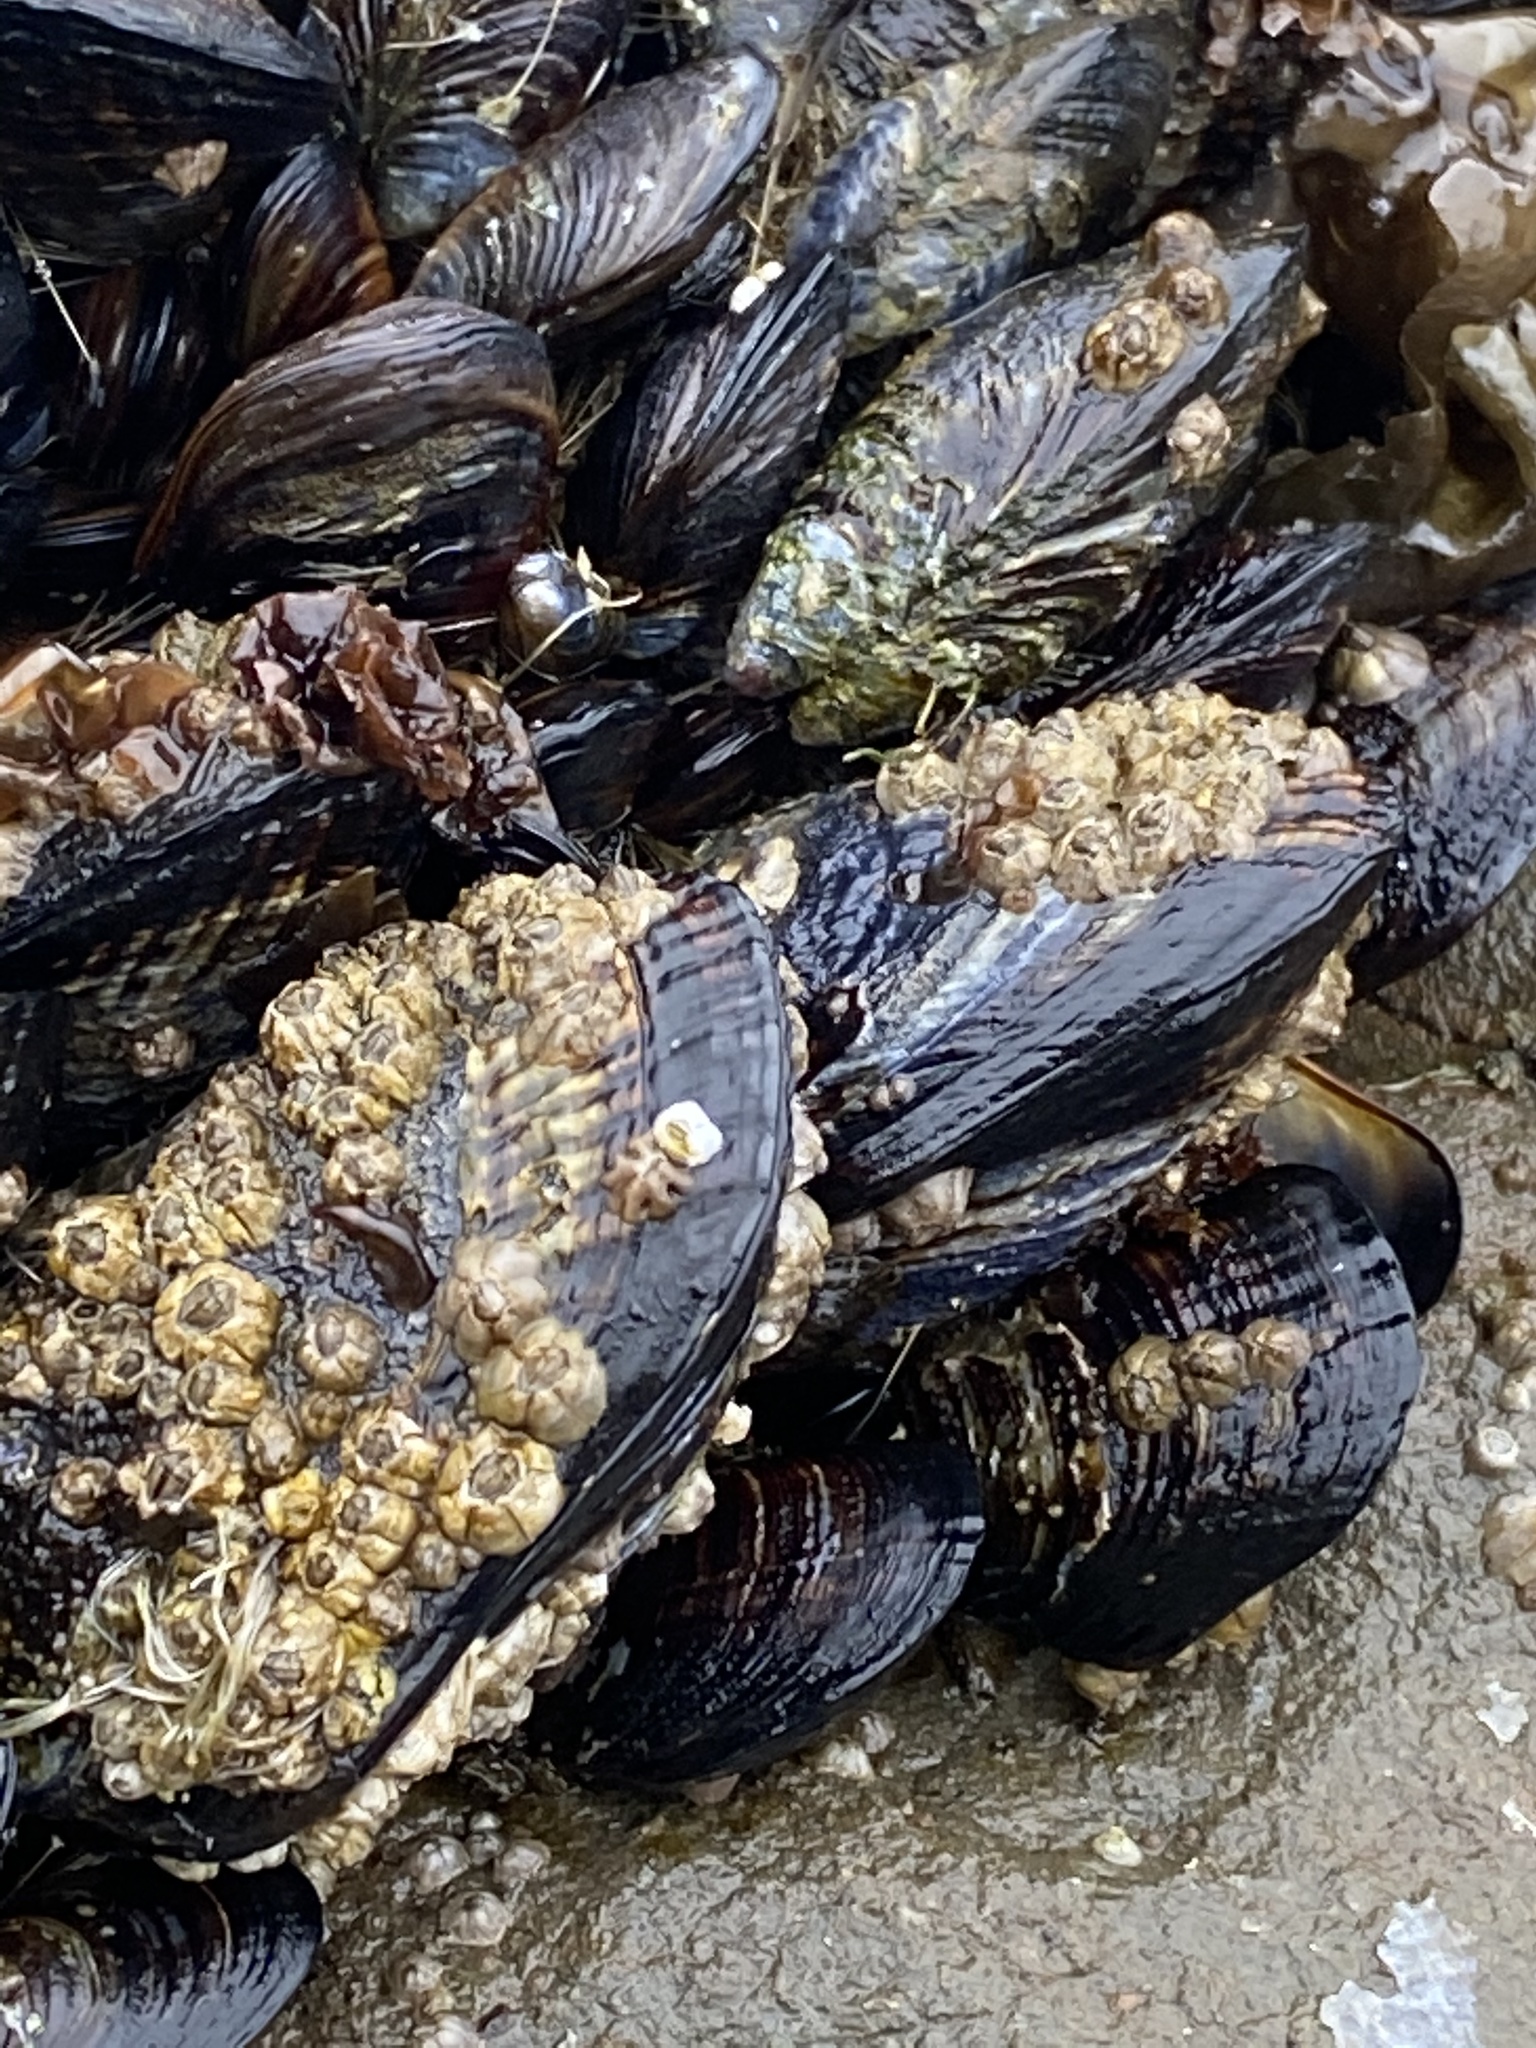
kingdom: Animalia
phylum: Mollusca
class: Bivalvia
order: Mytilida
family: Mytilidae
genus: Mytilus
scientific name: Mytilus californianus
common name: California mussel
